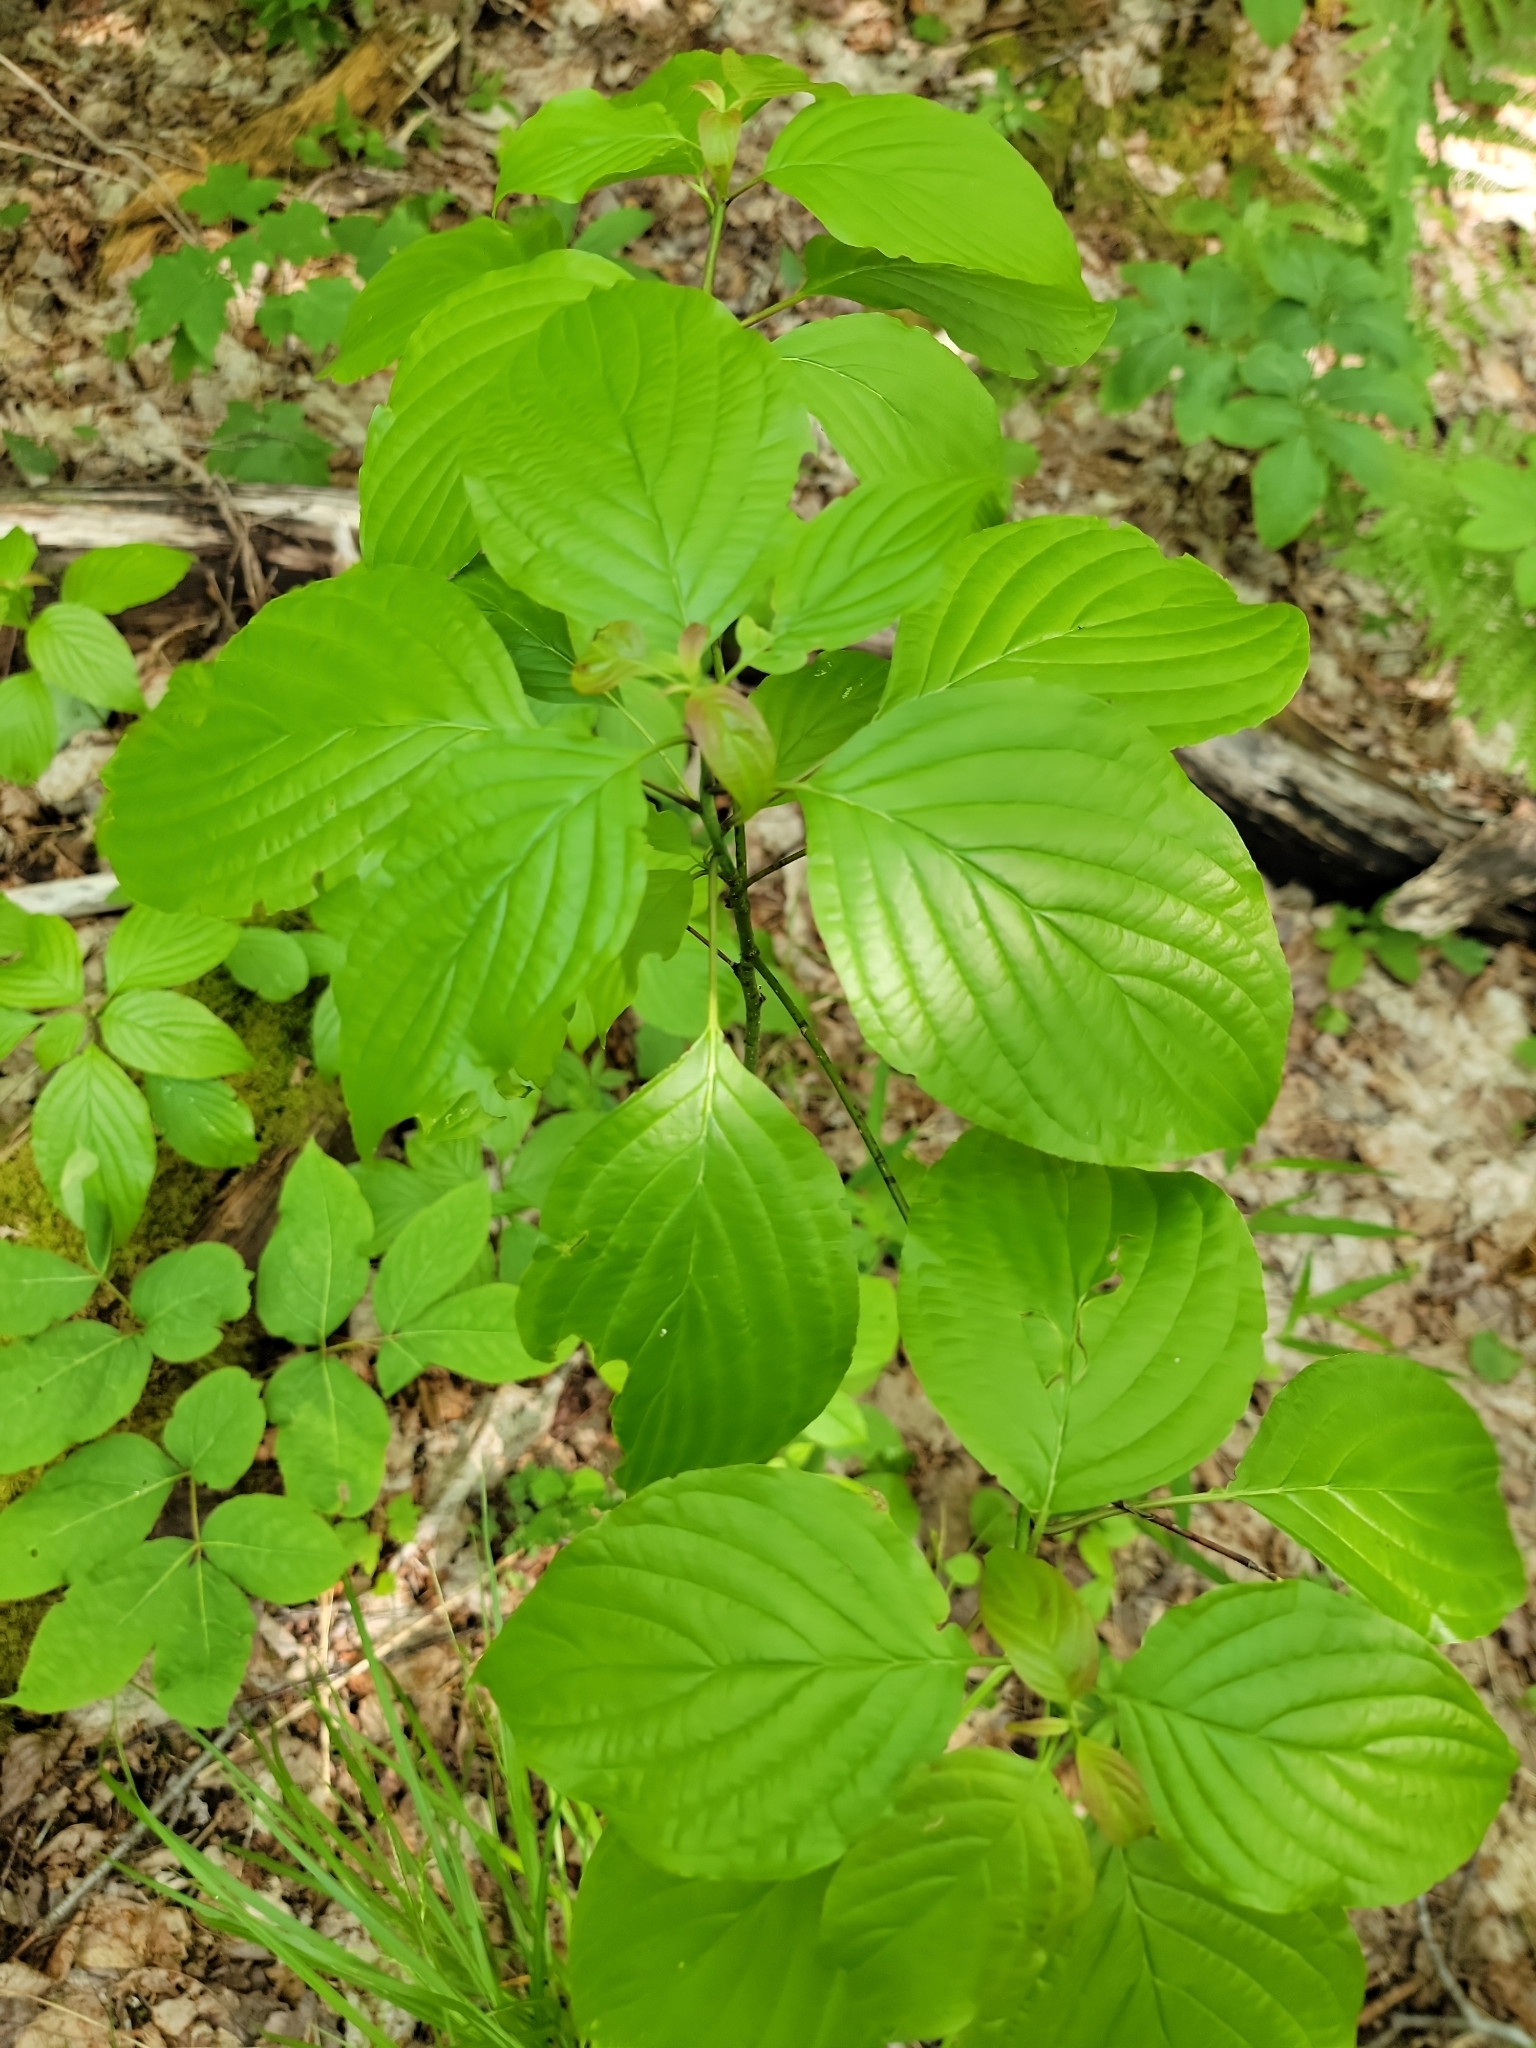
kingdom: Plantae
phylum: Tracheophyta
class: Magnoliopsida
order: Cornales
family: Cornaceae
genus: Cornus
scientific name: Cornus alternifolia
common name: Pagoda dogwood
